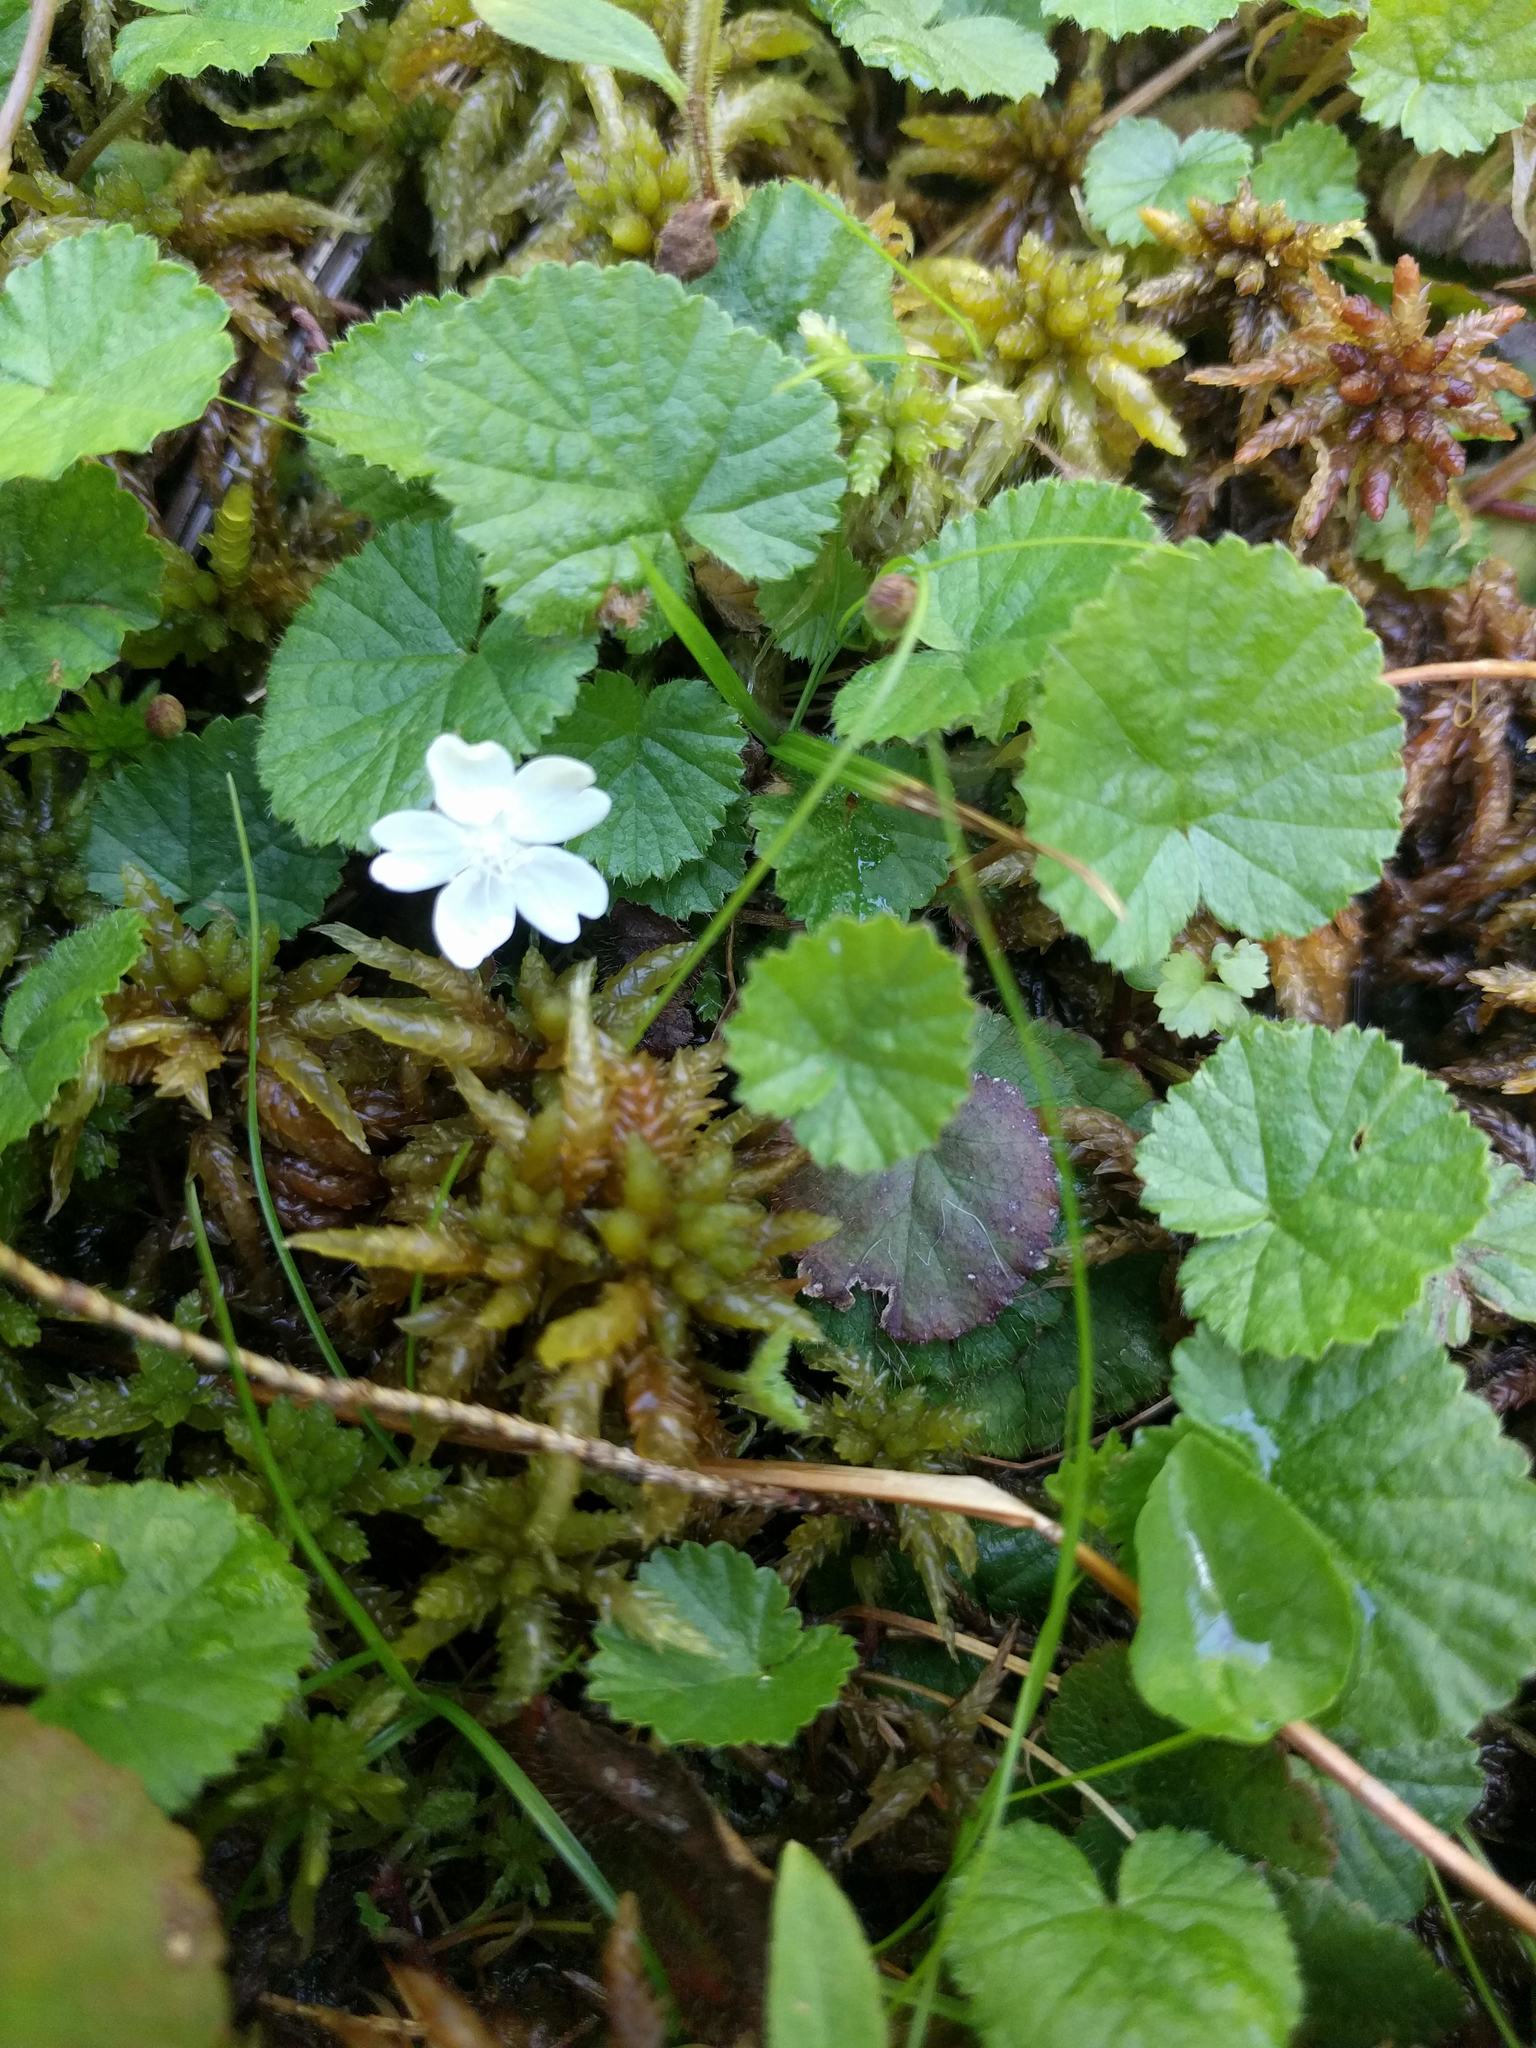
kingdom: Plantae
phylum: Tracheophyta
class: Magnoliopsida
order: Rosales
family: Rosaceae
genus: Dalibarda
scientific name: Dalibarda repens
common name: Dewdrop
